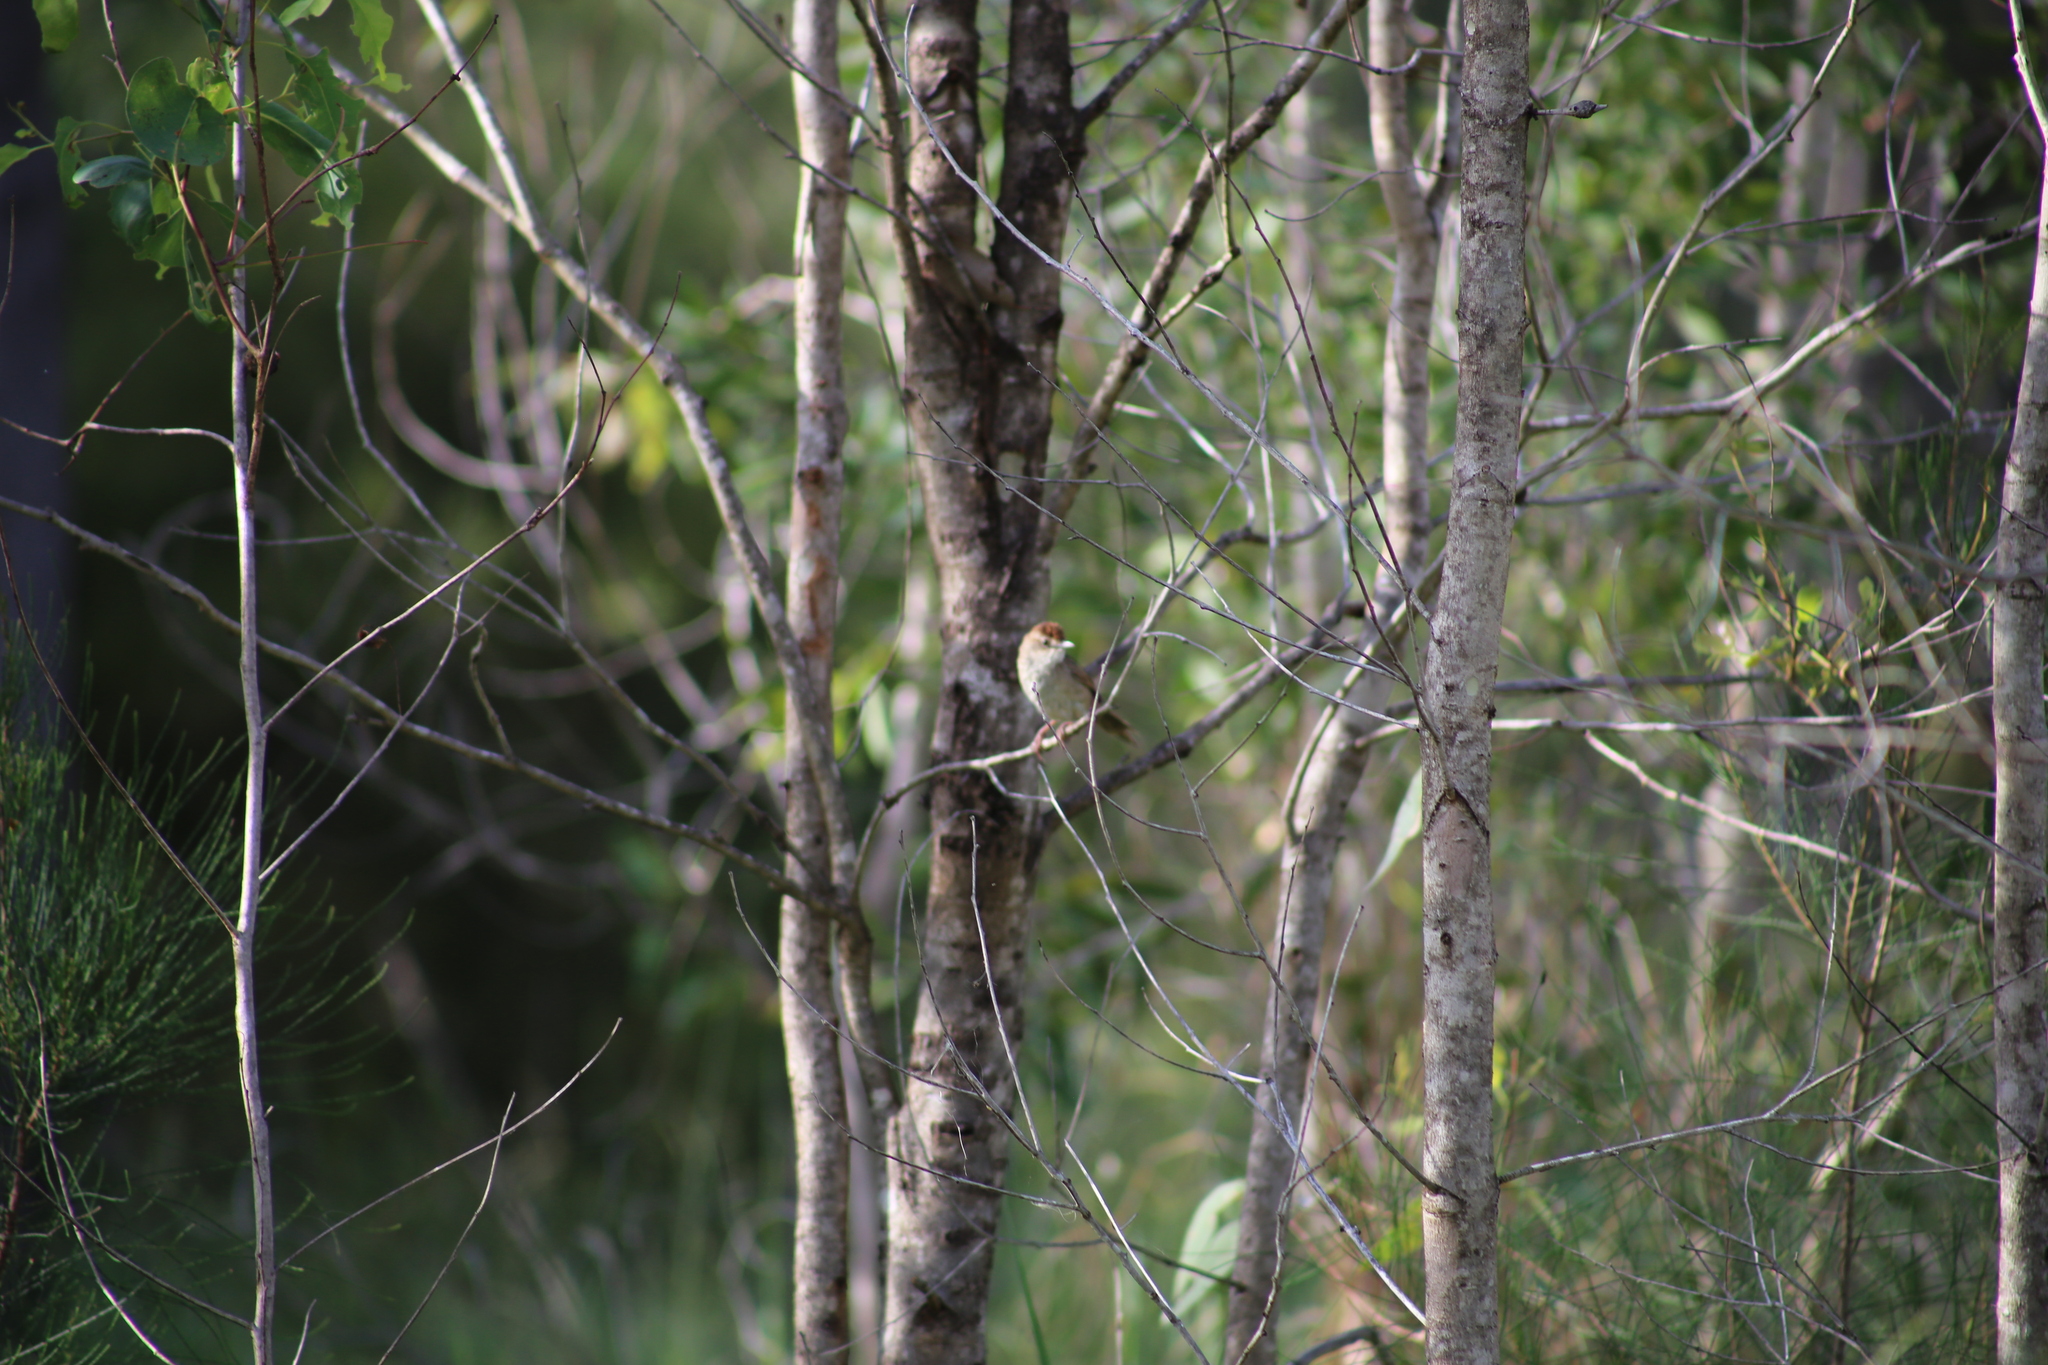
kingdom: Animalia
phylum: Chordata
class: Aves
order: Passeriformes
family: Locustellidae
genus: Megalurus
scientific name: Megalurus timoriensis
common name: Tawny grassbird
